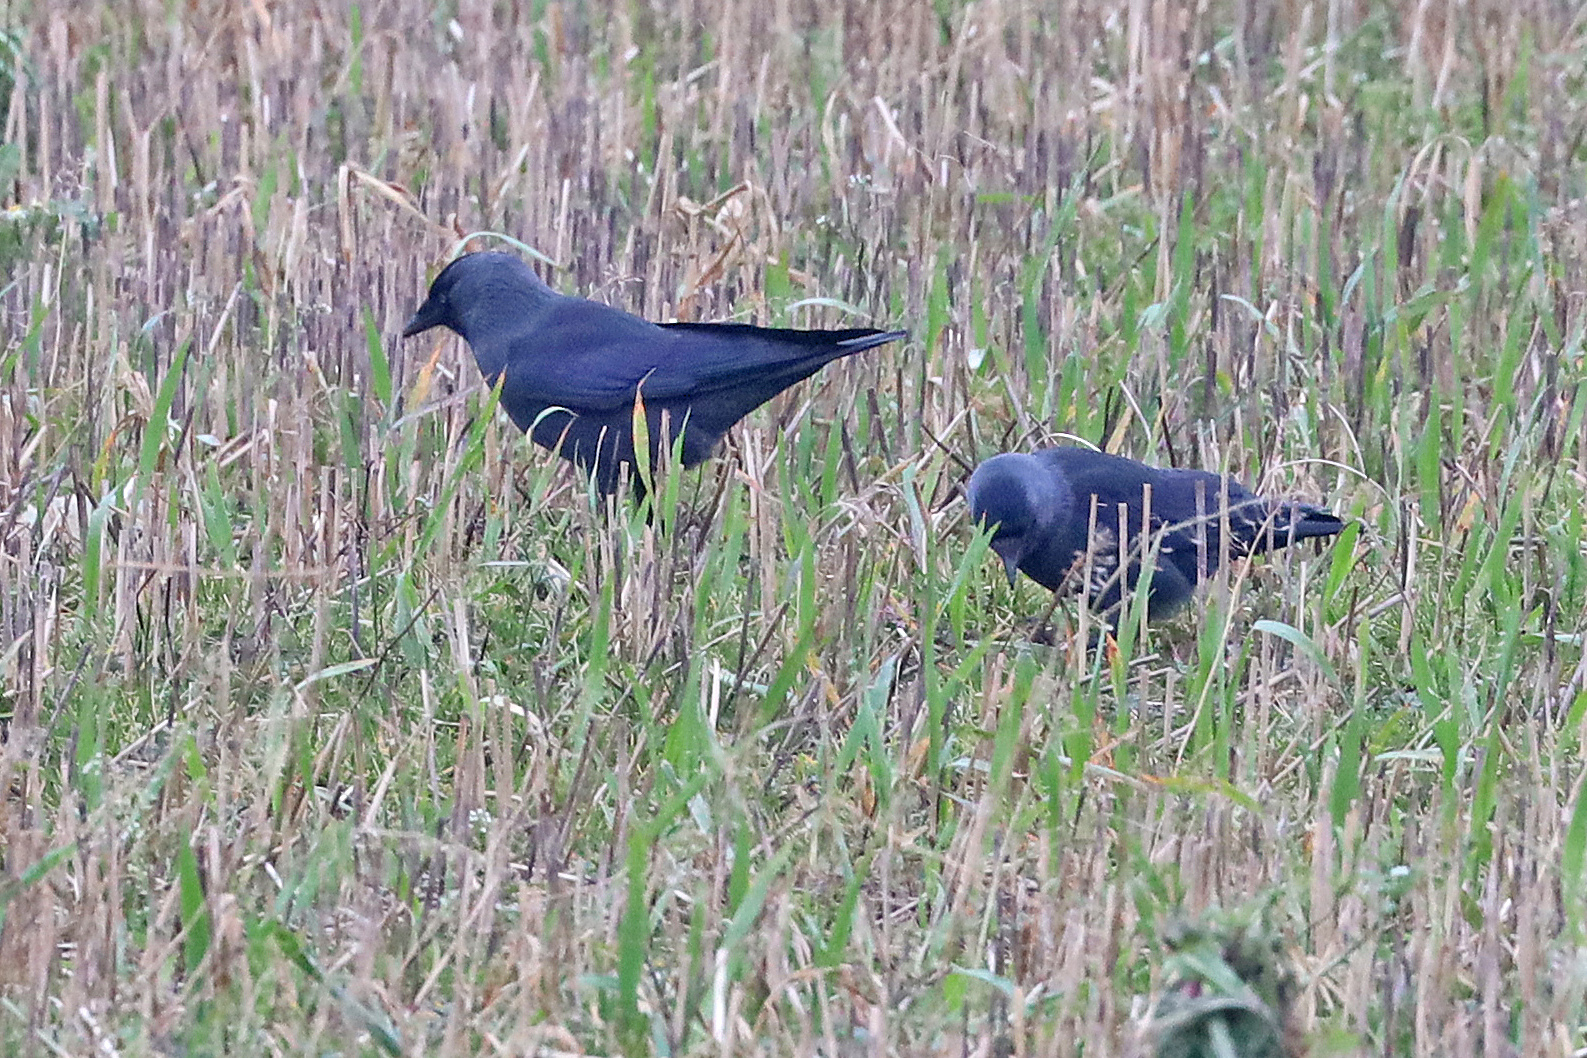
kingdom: Animalia
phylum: Chordata
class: Aves
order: Passeriformes
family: Corvidae
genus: Coloeus
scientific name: Coloeus monedula
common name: Western jackdaw
